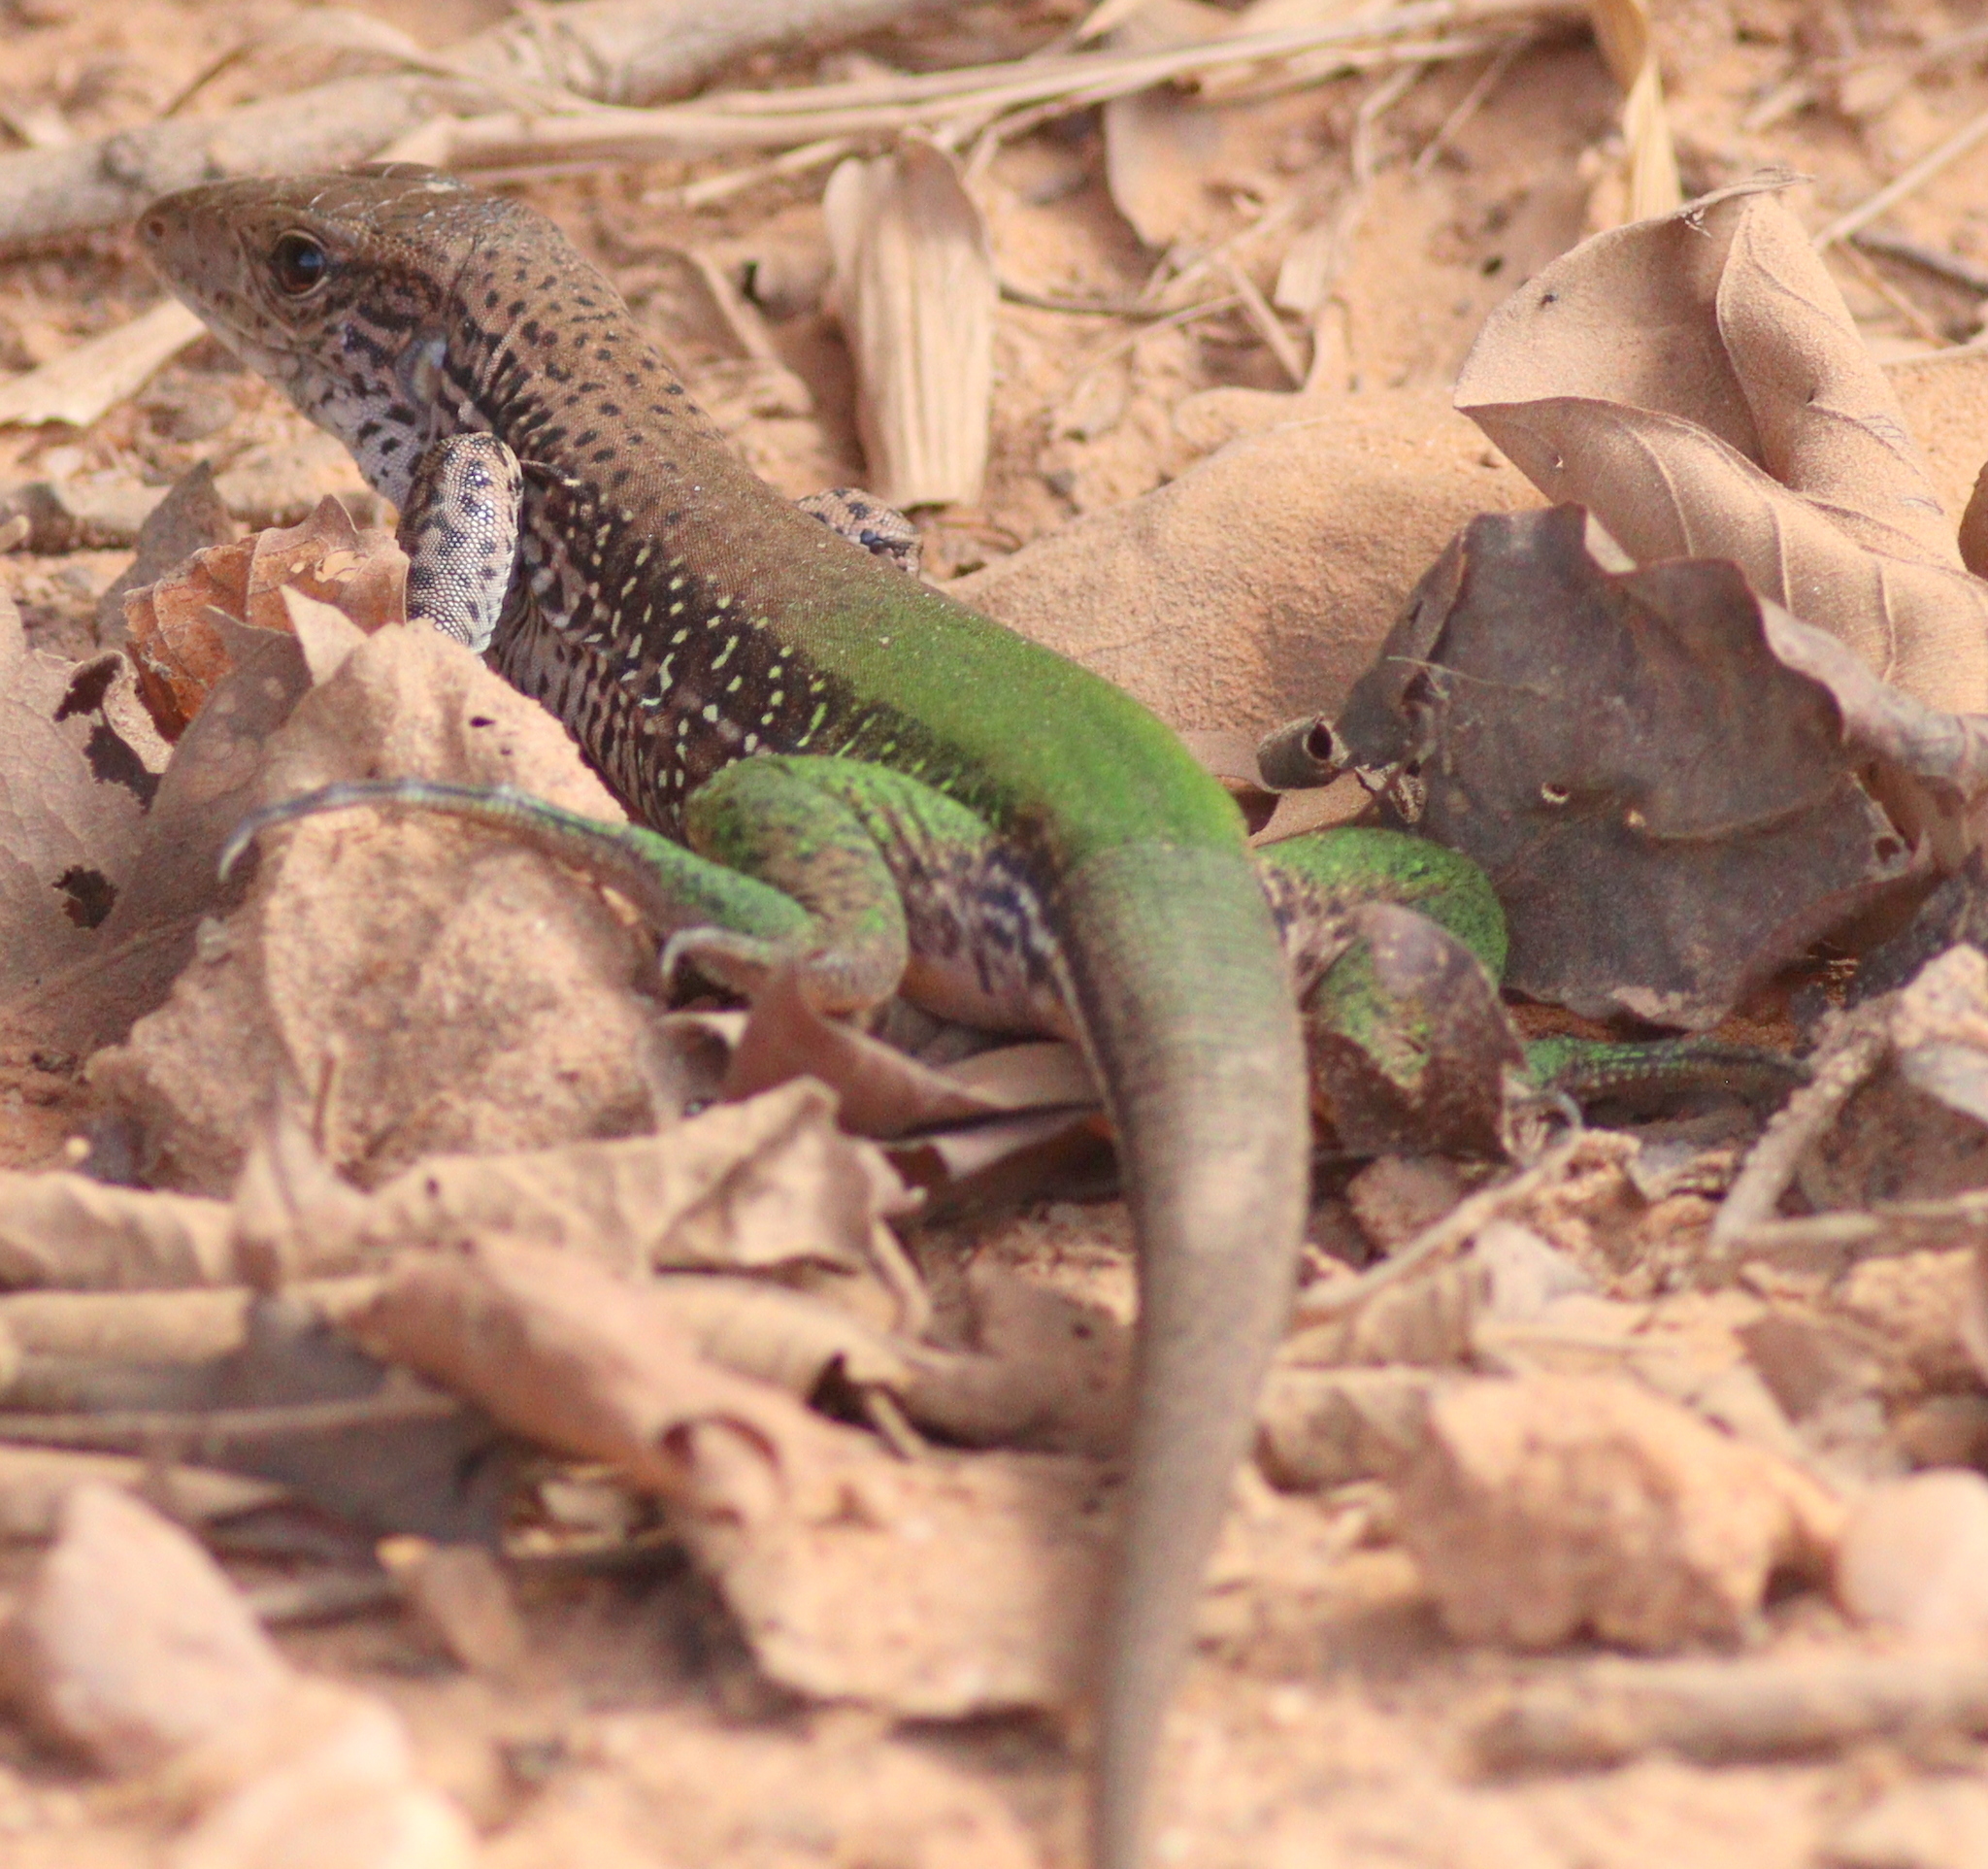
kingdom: Animalia
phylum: Chordata
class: Squamata
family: Teiidae
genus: Ameiva
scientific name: Ameiva ameiva
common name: Giant ameiva
